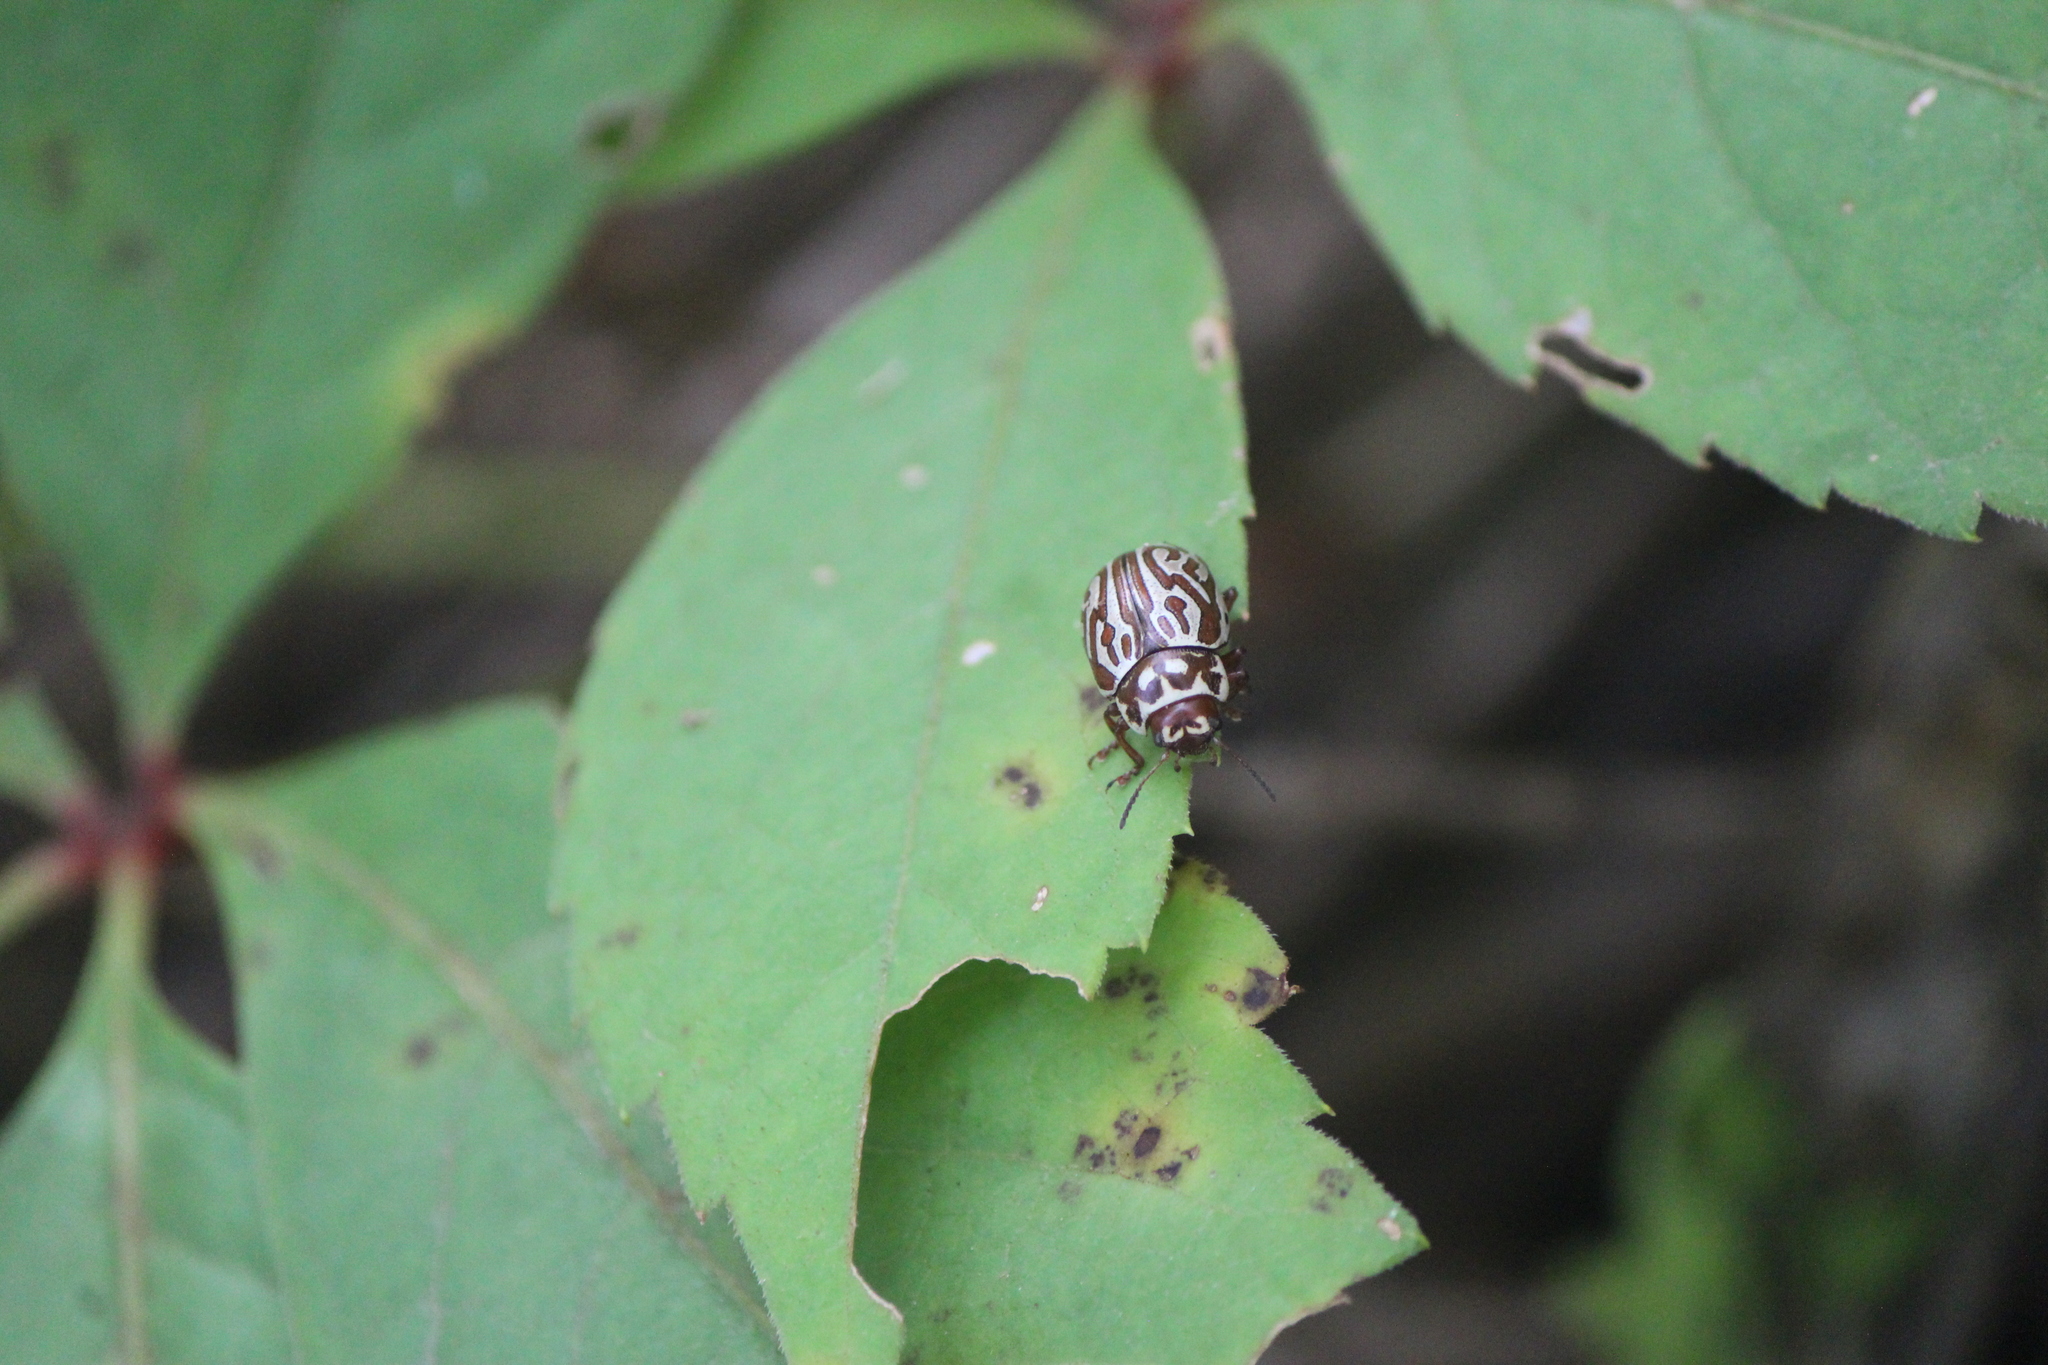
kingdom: Animalia
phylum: Arthropoda
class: Insecta
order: Coleoptera
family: Chrysomelidae
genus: Calligrapha
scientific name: Calligrapha thermalis
